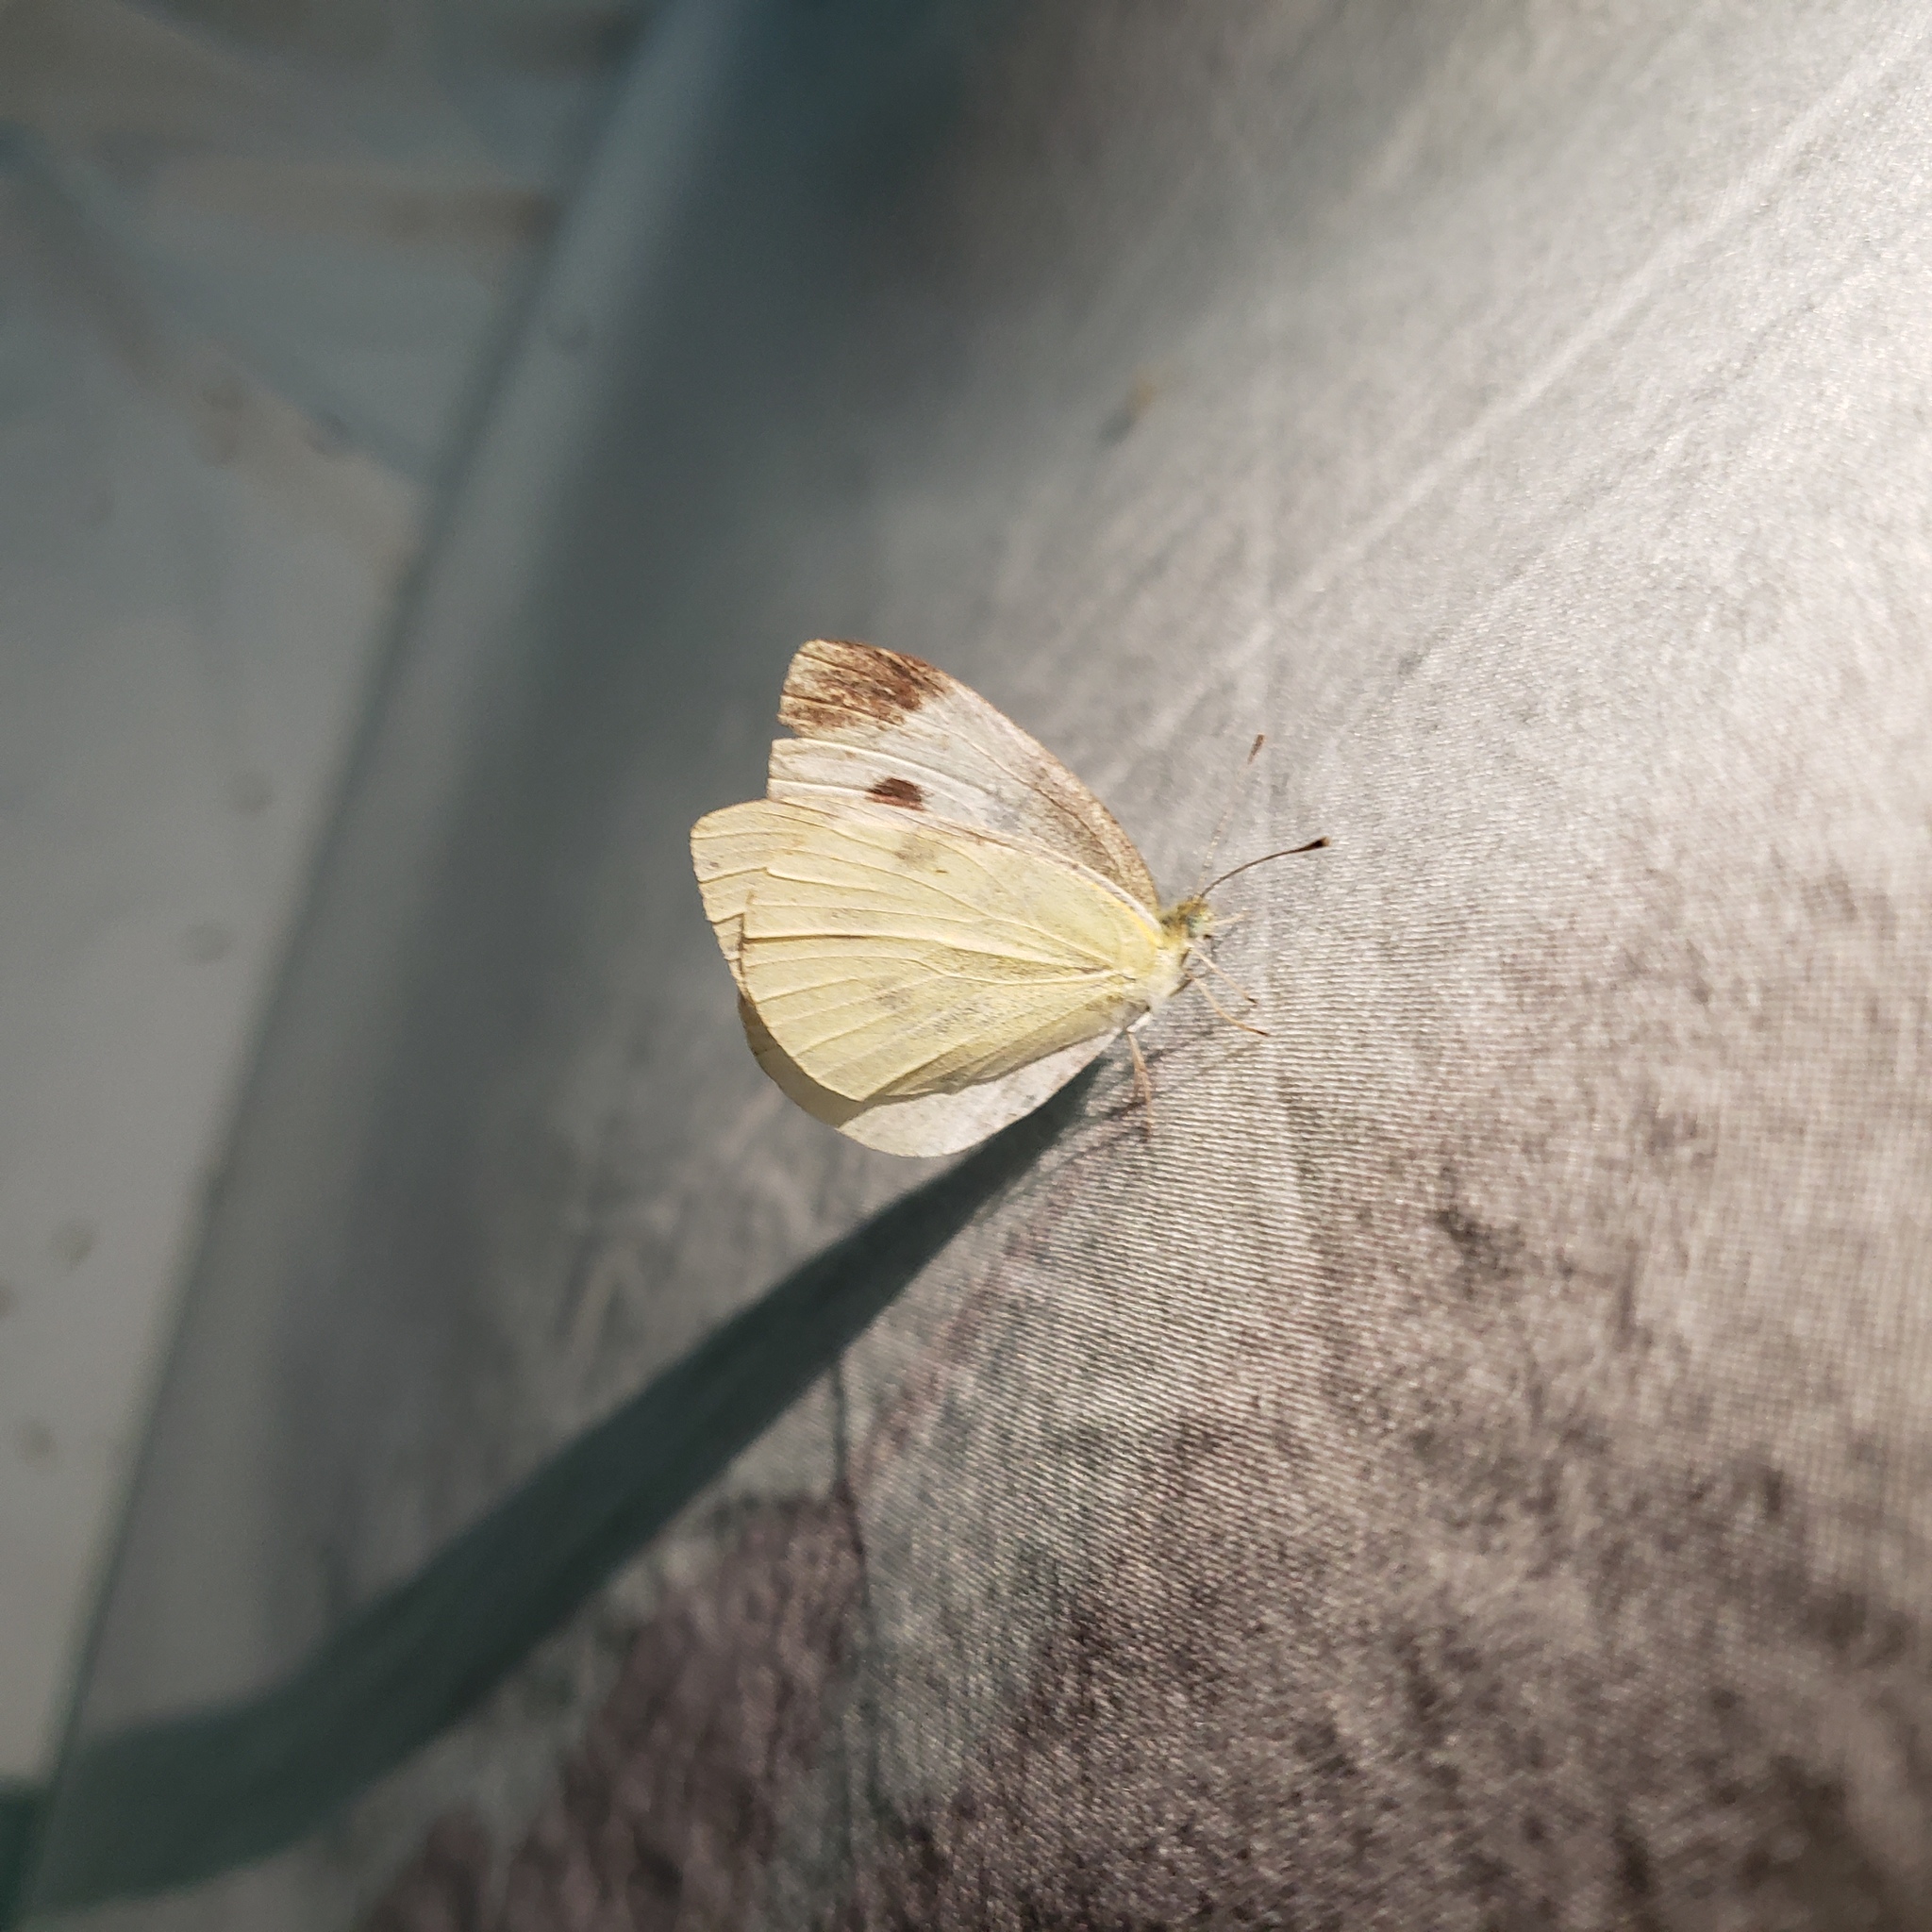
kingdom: Animalia
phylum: Arthropoda
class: Insecta
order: Lepidoptera
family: Pieridae
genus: Pieris
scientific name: Pieris rapae
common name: Small white
